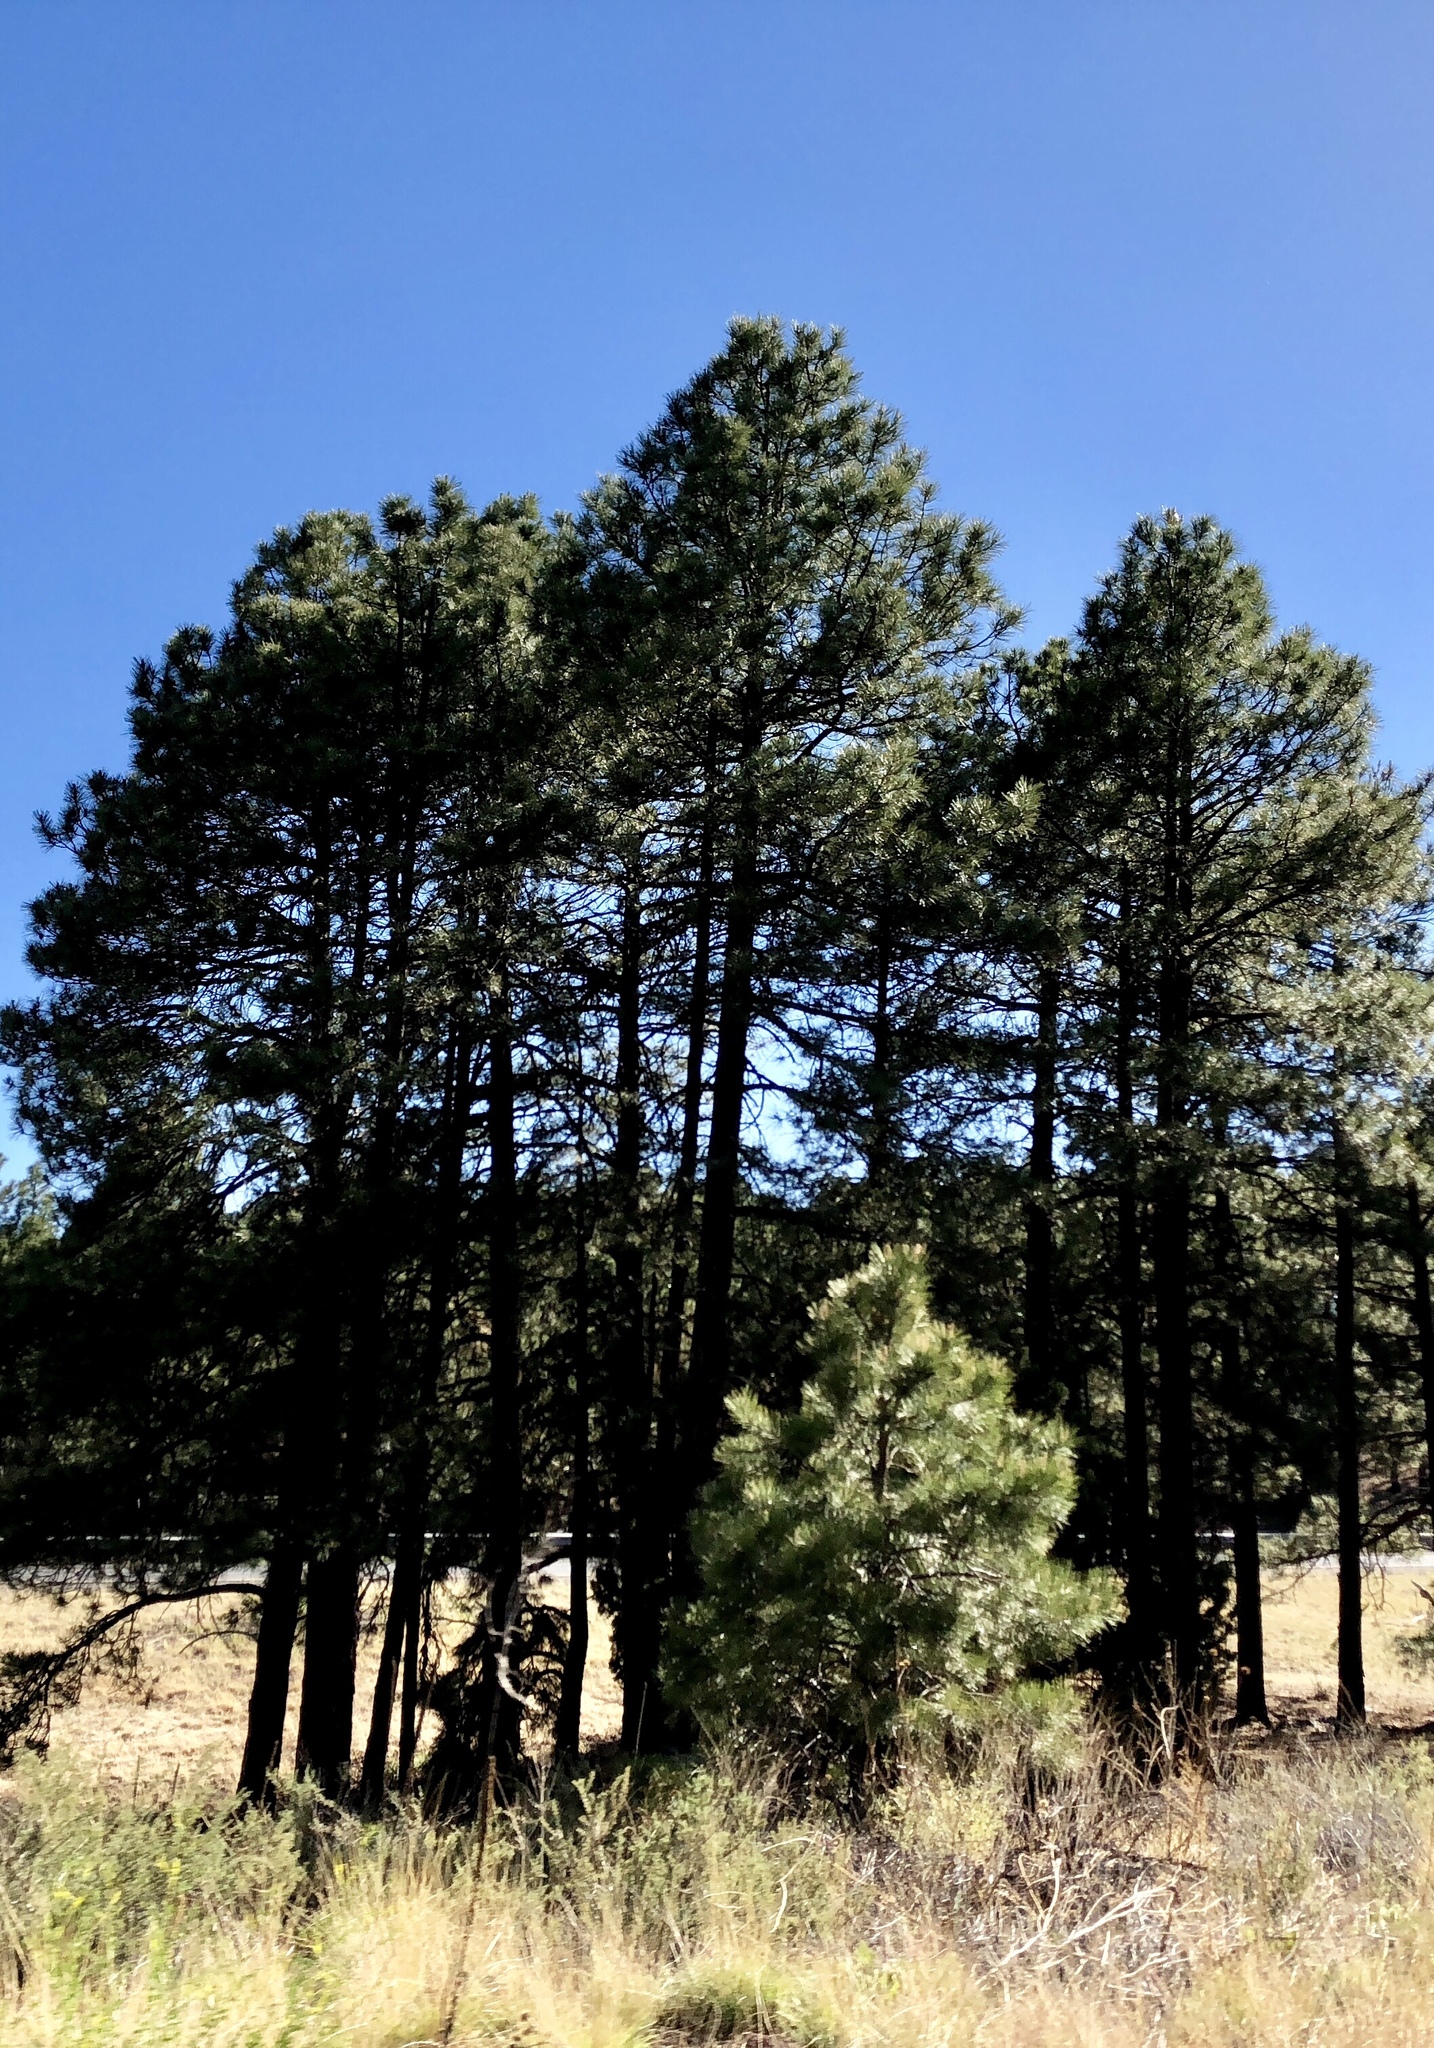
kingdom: Plantae
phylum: Tracheophyta
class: Pinopsida
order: Pinales
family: Pinaceae
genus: Pinus
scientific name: Pinus ponderosa
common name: Western yellow-pine
